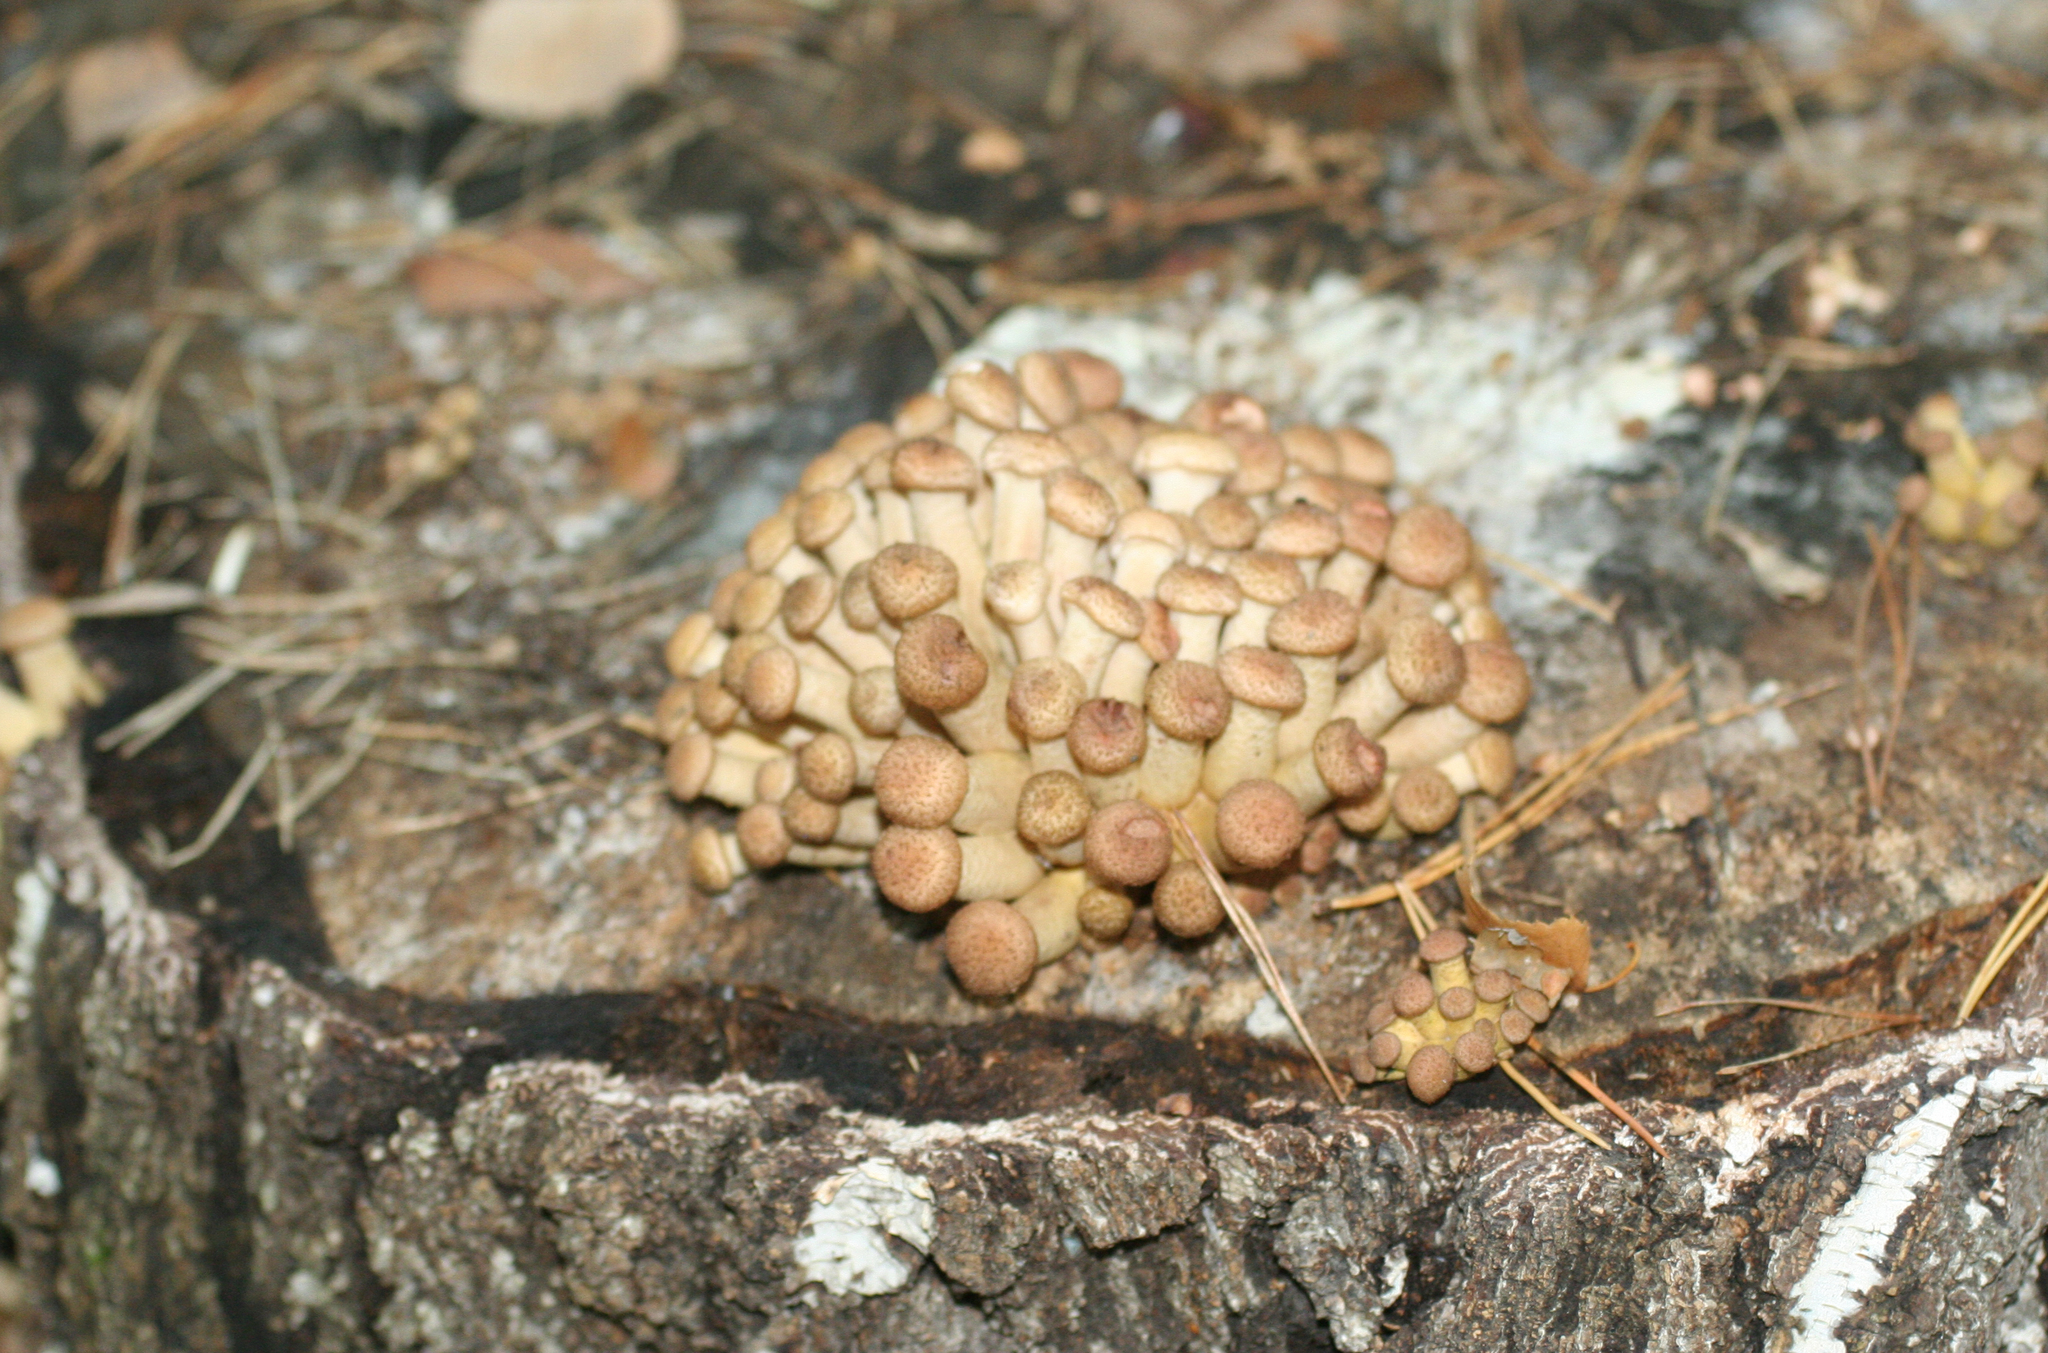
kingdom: Fungi
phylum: Basidiomycota
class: Agaricomycetes
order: Agaricales
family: Physalacriaceae
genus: Armillaria
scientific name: Armillaria borealis
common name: Northern honey fungus
